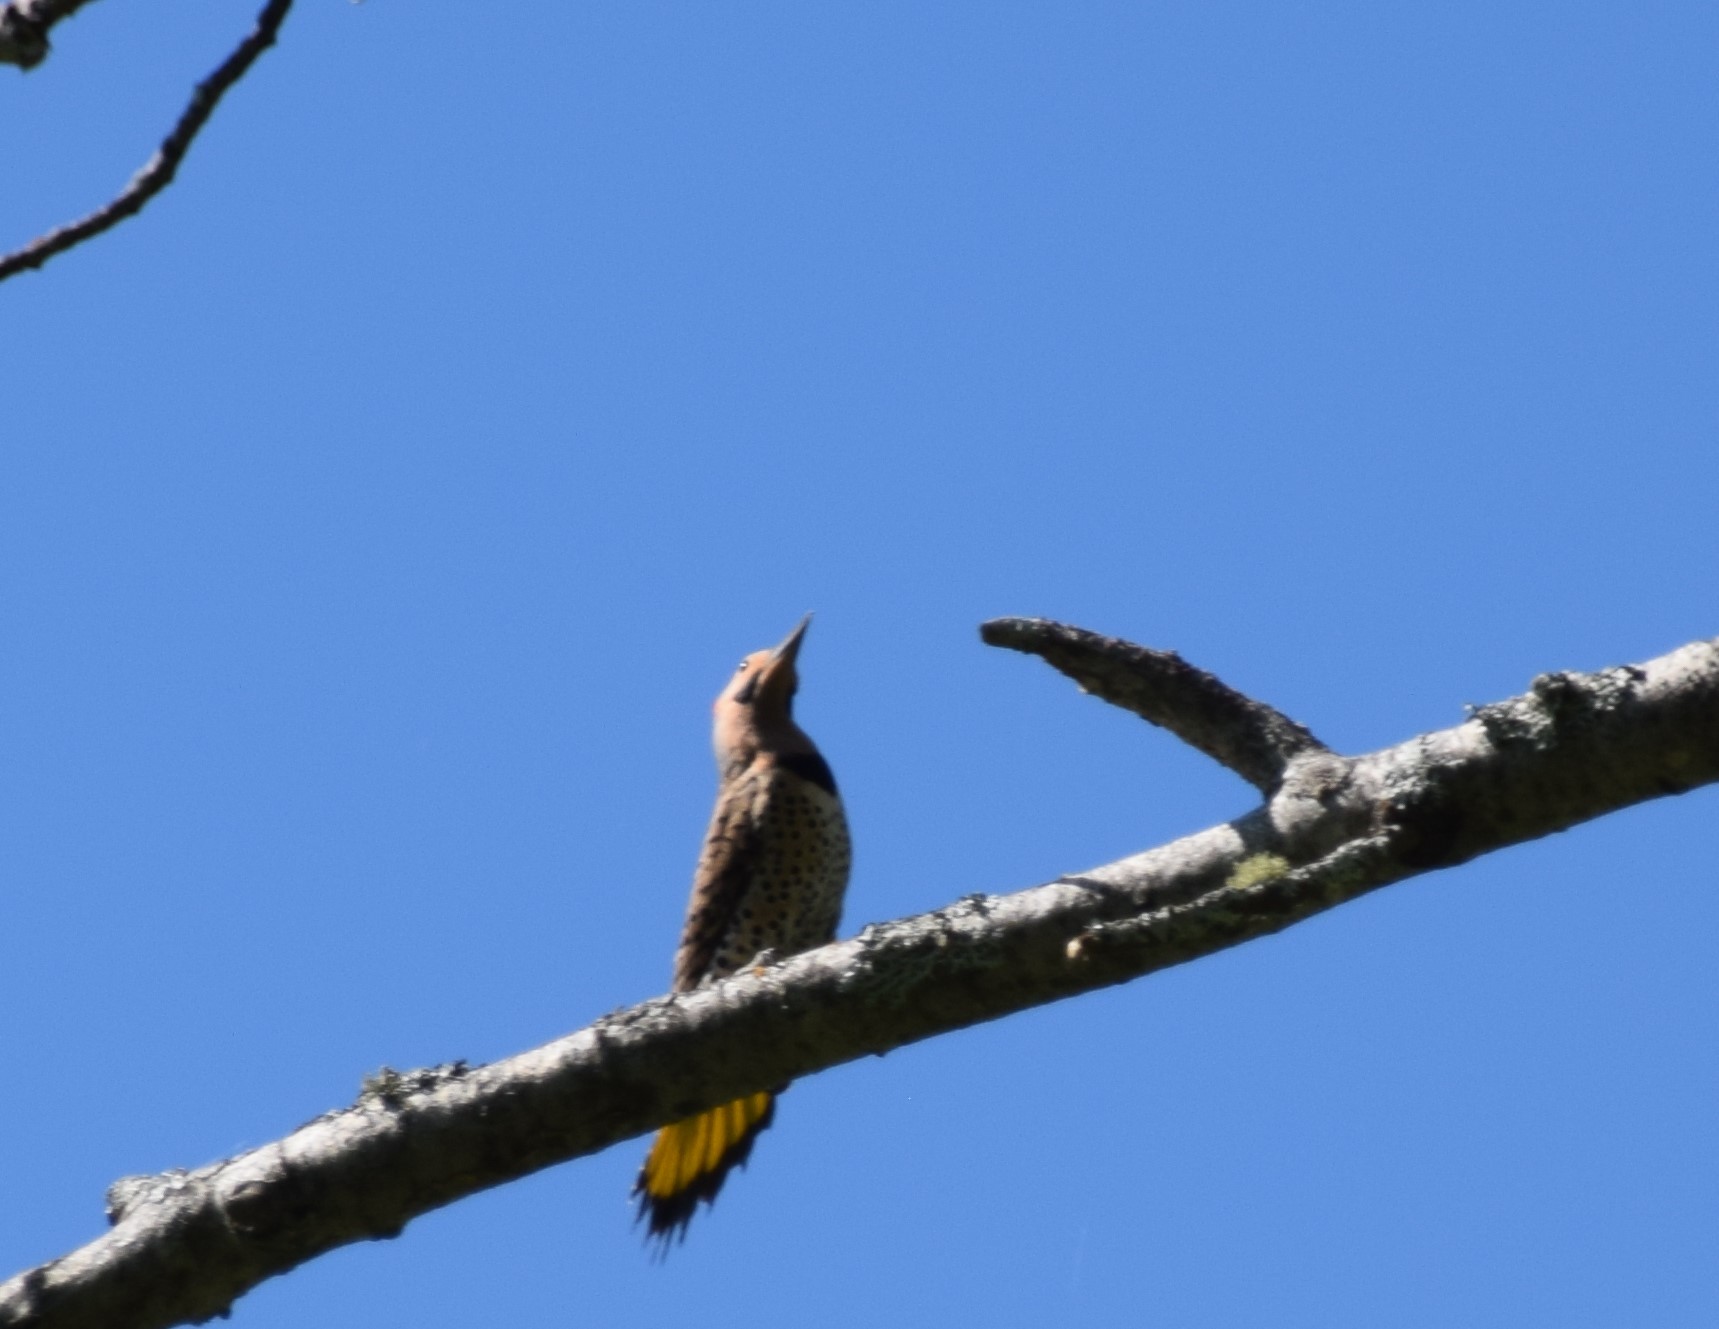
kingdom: Animalia
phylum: Chordata
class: Aves
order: Piciformes
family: Picidae
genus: Colaptes
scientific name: Colaptes auratus
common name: Northern flicker
